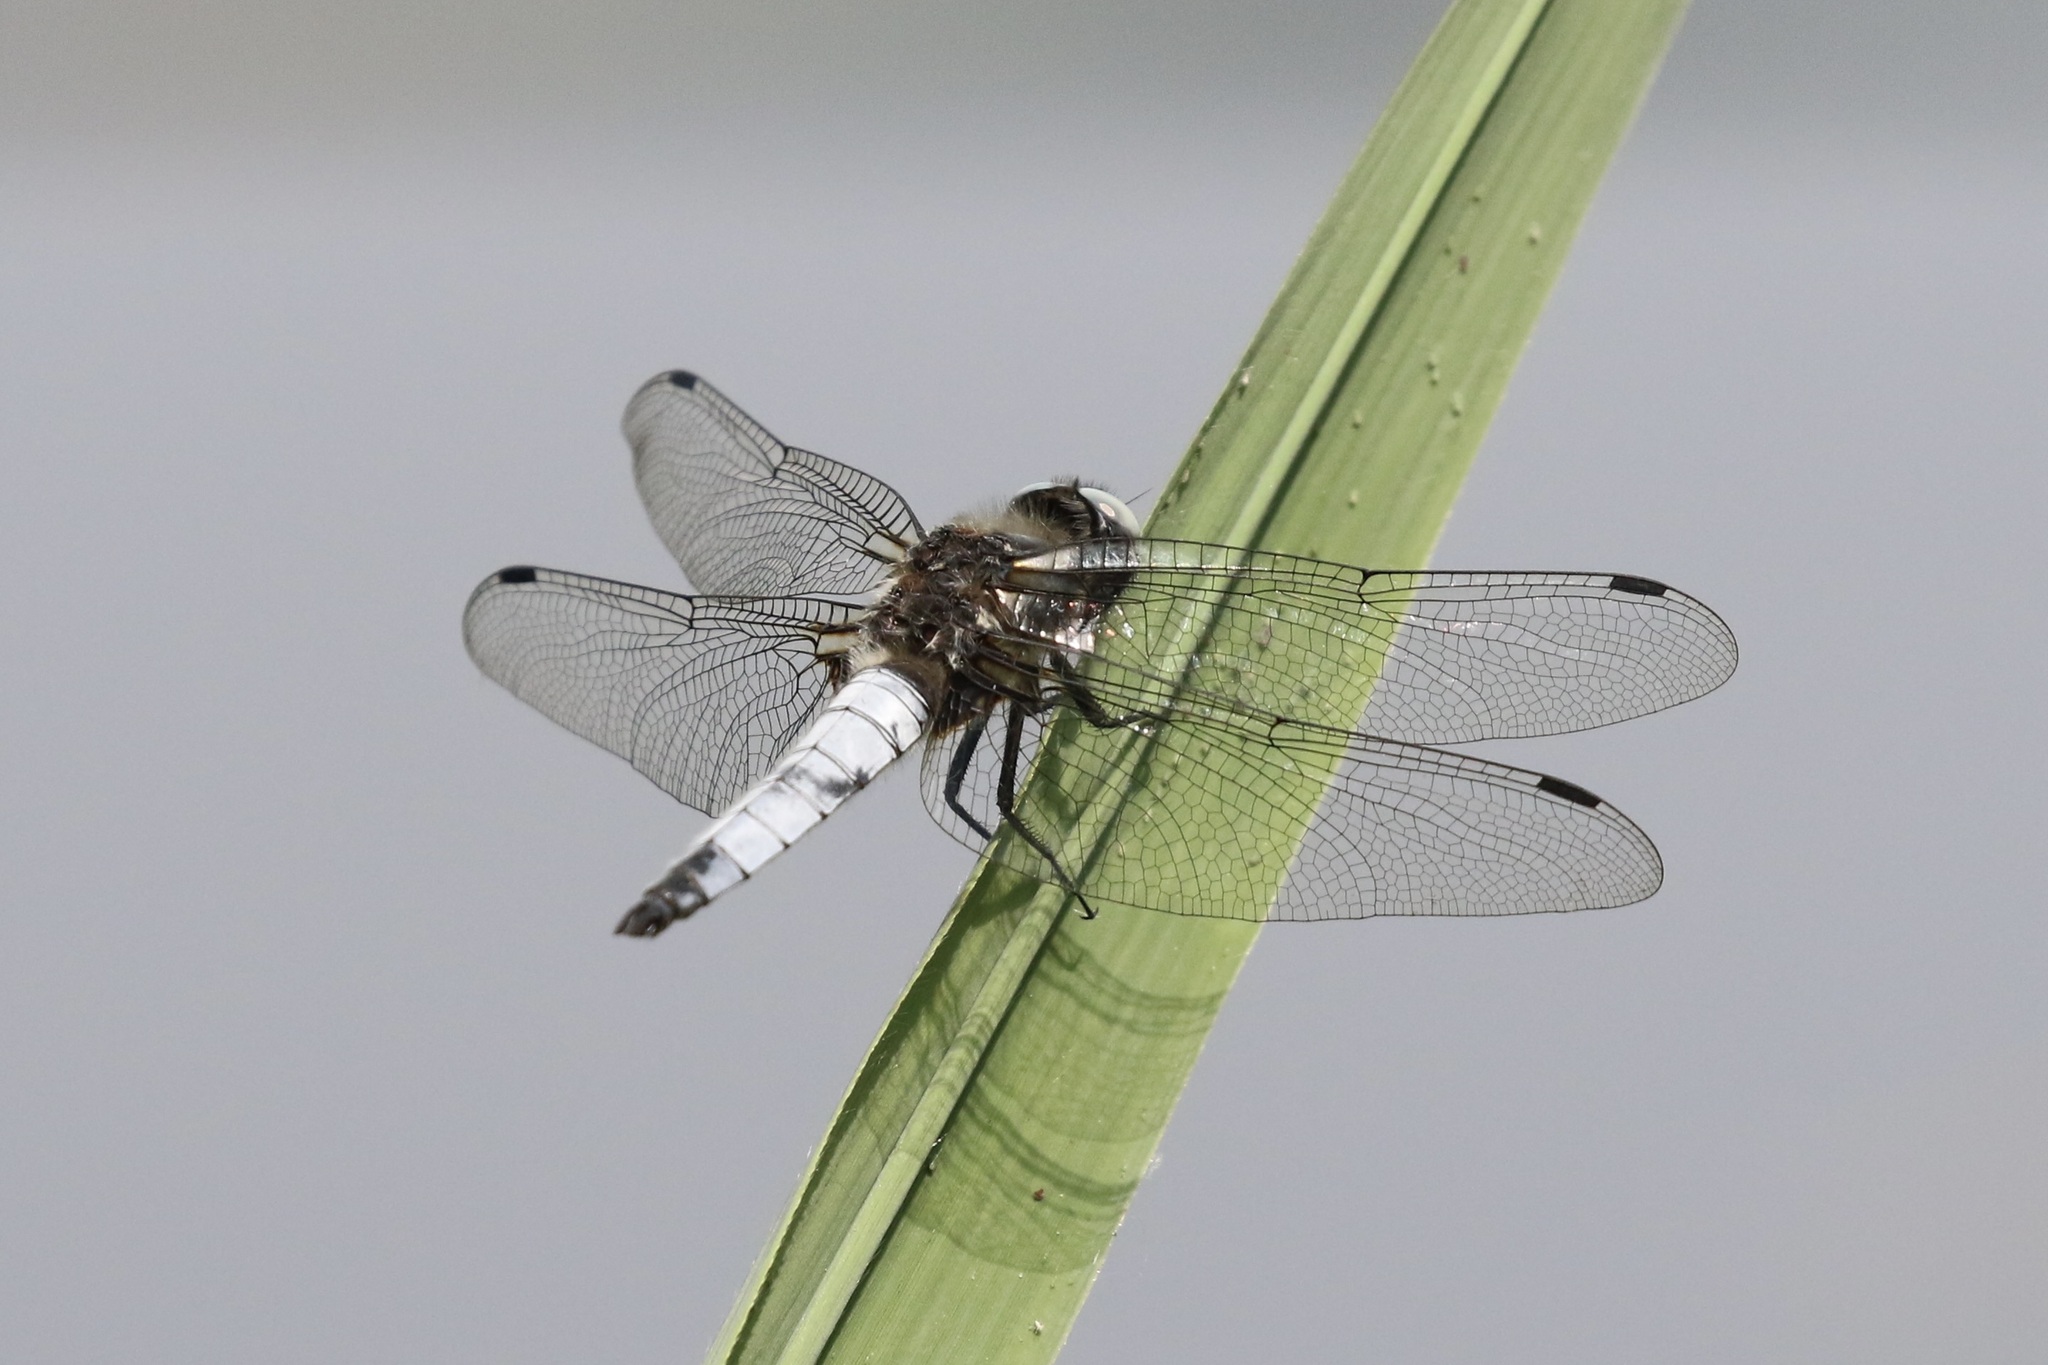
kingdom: Animalia
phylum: Arthropoda
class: Insecta
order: Odonata
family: Libellulidae
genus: Libellula
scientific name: Libellula fulva
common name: Blue chaser
